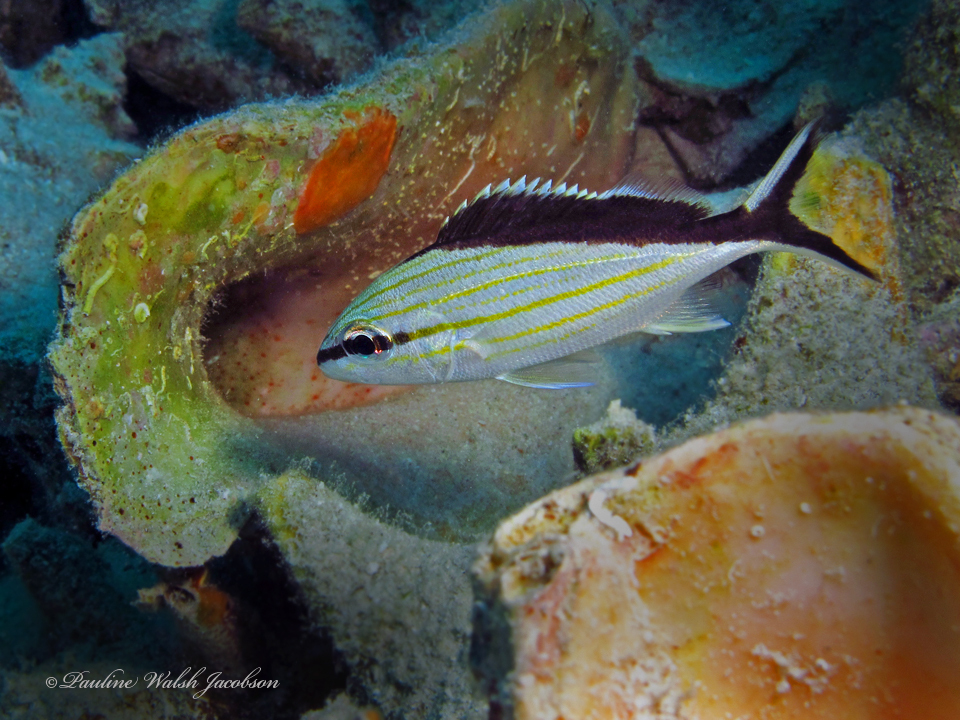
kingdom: Animalia
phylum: Chordata
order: Perciformes
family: Haemulidae
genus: Haemulon
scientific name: Haemulon melanurum
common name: Cottonwick
